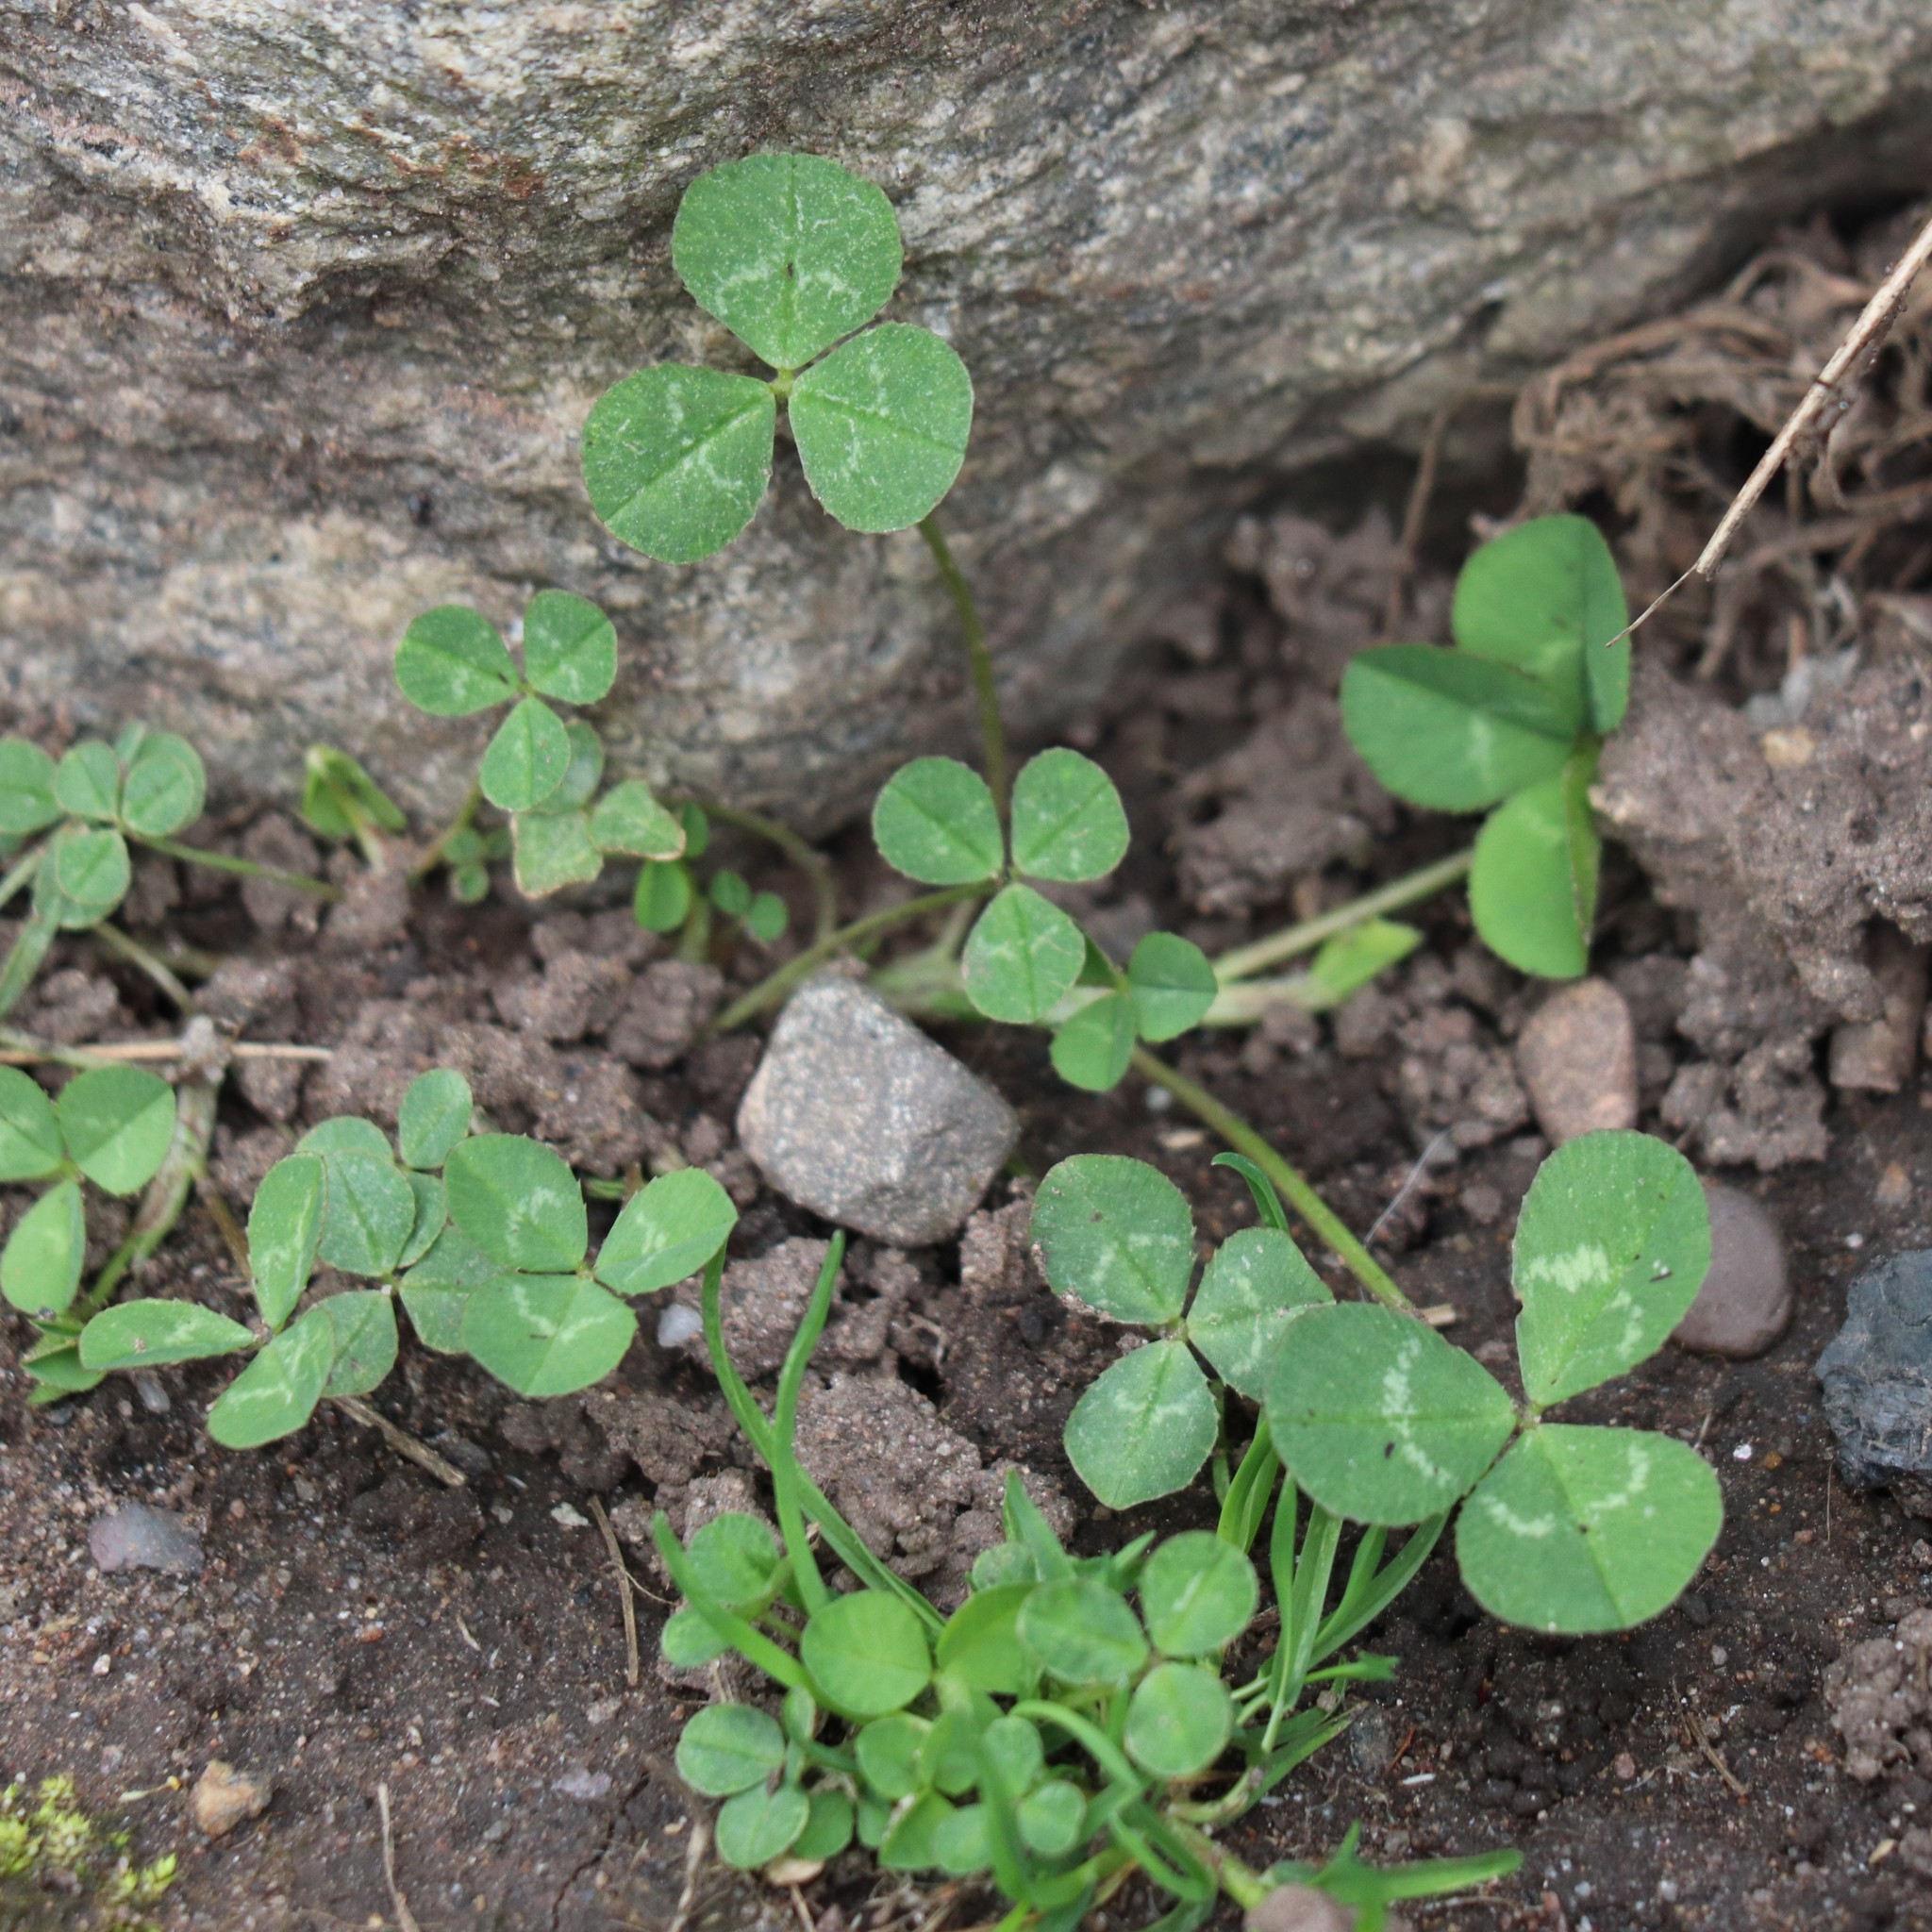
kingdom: Plantae
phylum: Tracheophyta
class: Magnoliopsida
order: Fabales
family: Fabaceae
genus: Trifolium
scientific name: Trifolium repens
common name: White clover
